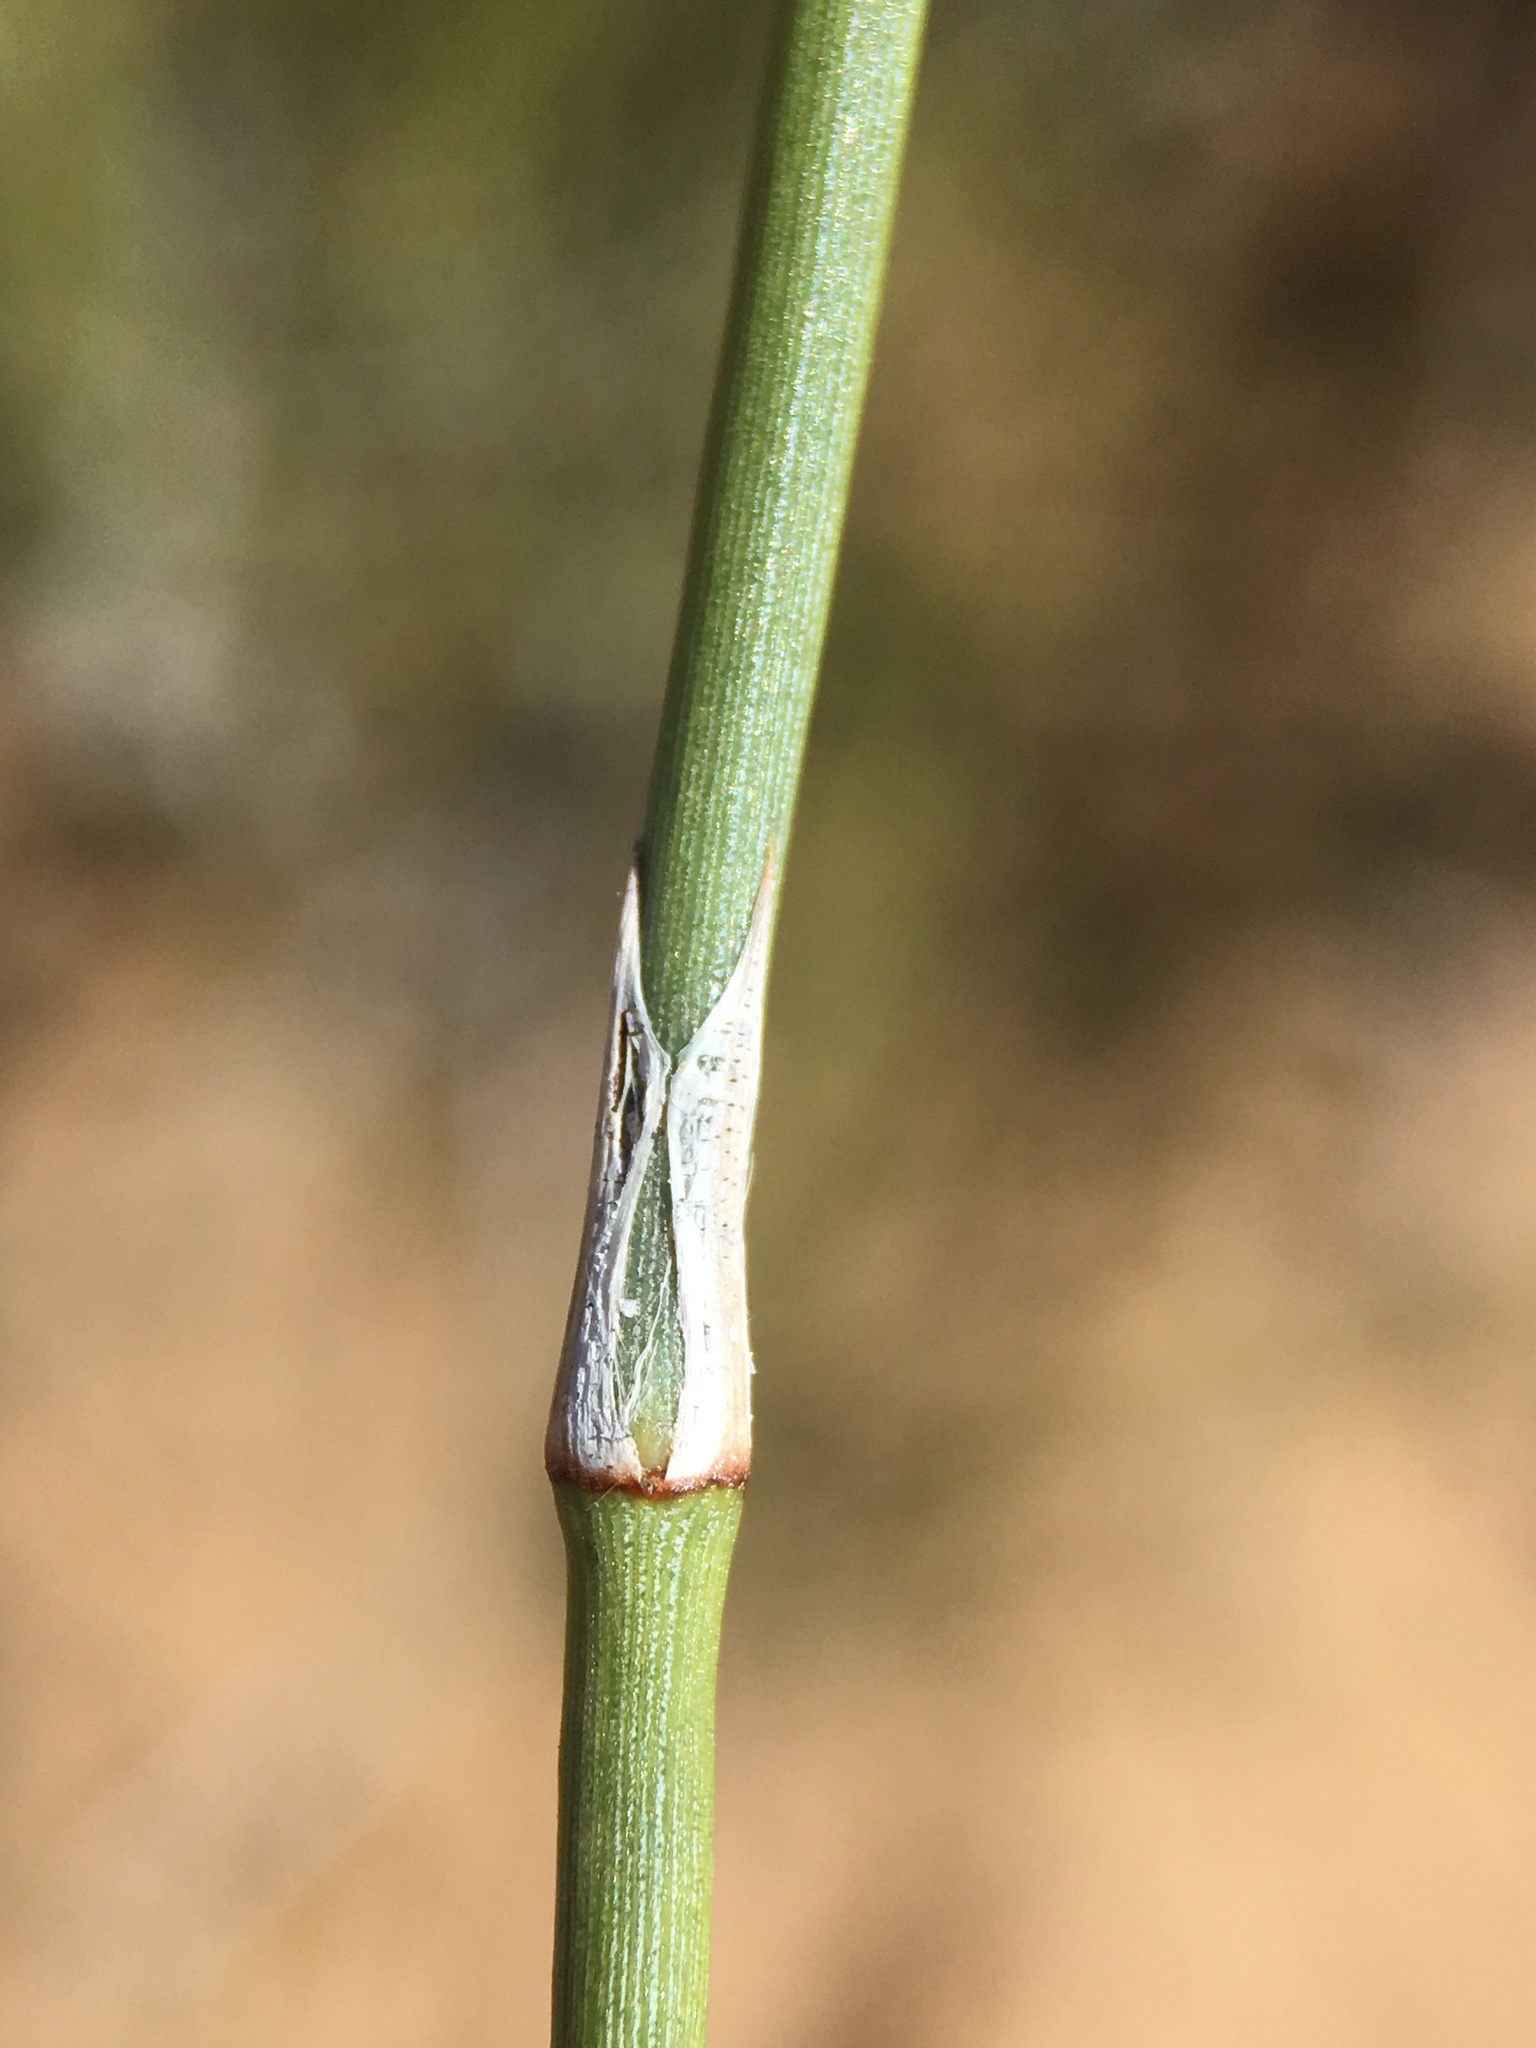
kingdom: Plantae
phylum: Tracheophyta
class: Gnetopsida
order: Ephedrales
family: Ephedraceae
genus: Ephedra
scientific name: Ephedra trifurca
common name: Mexican-tea
